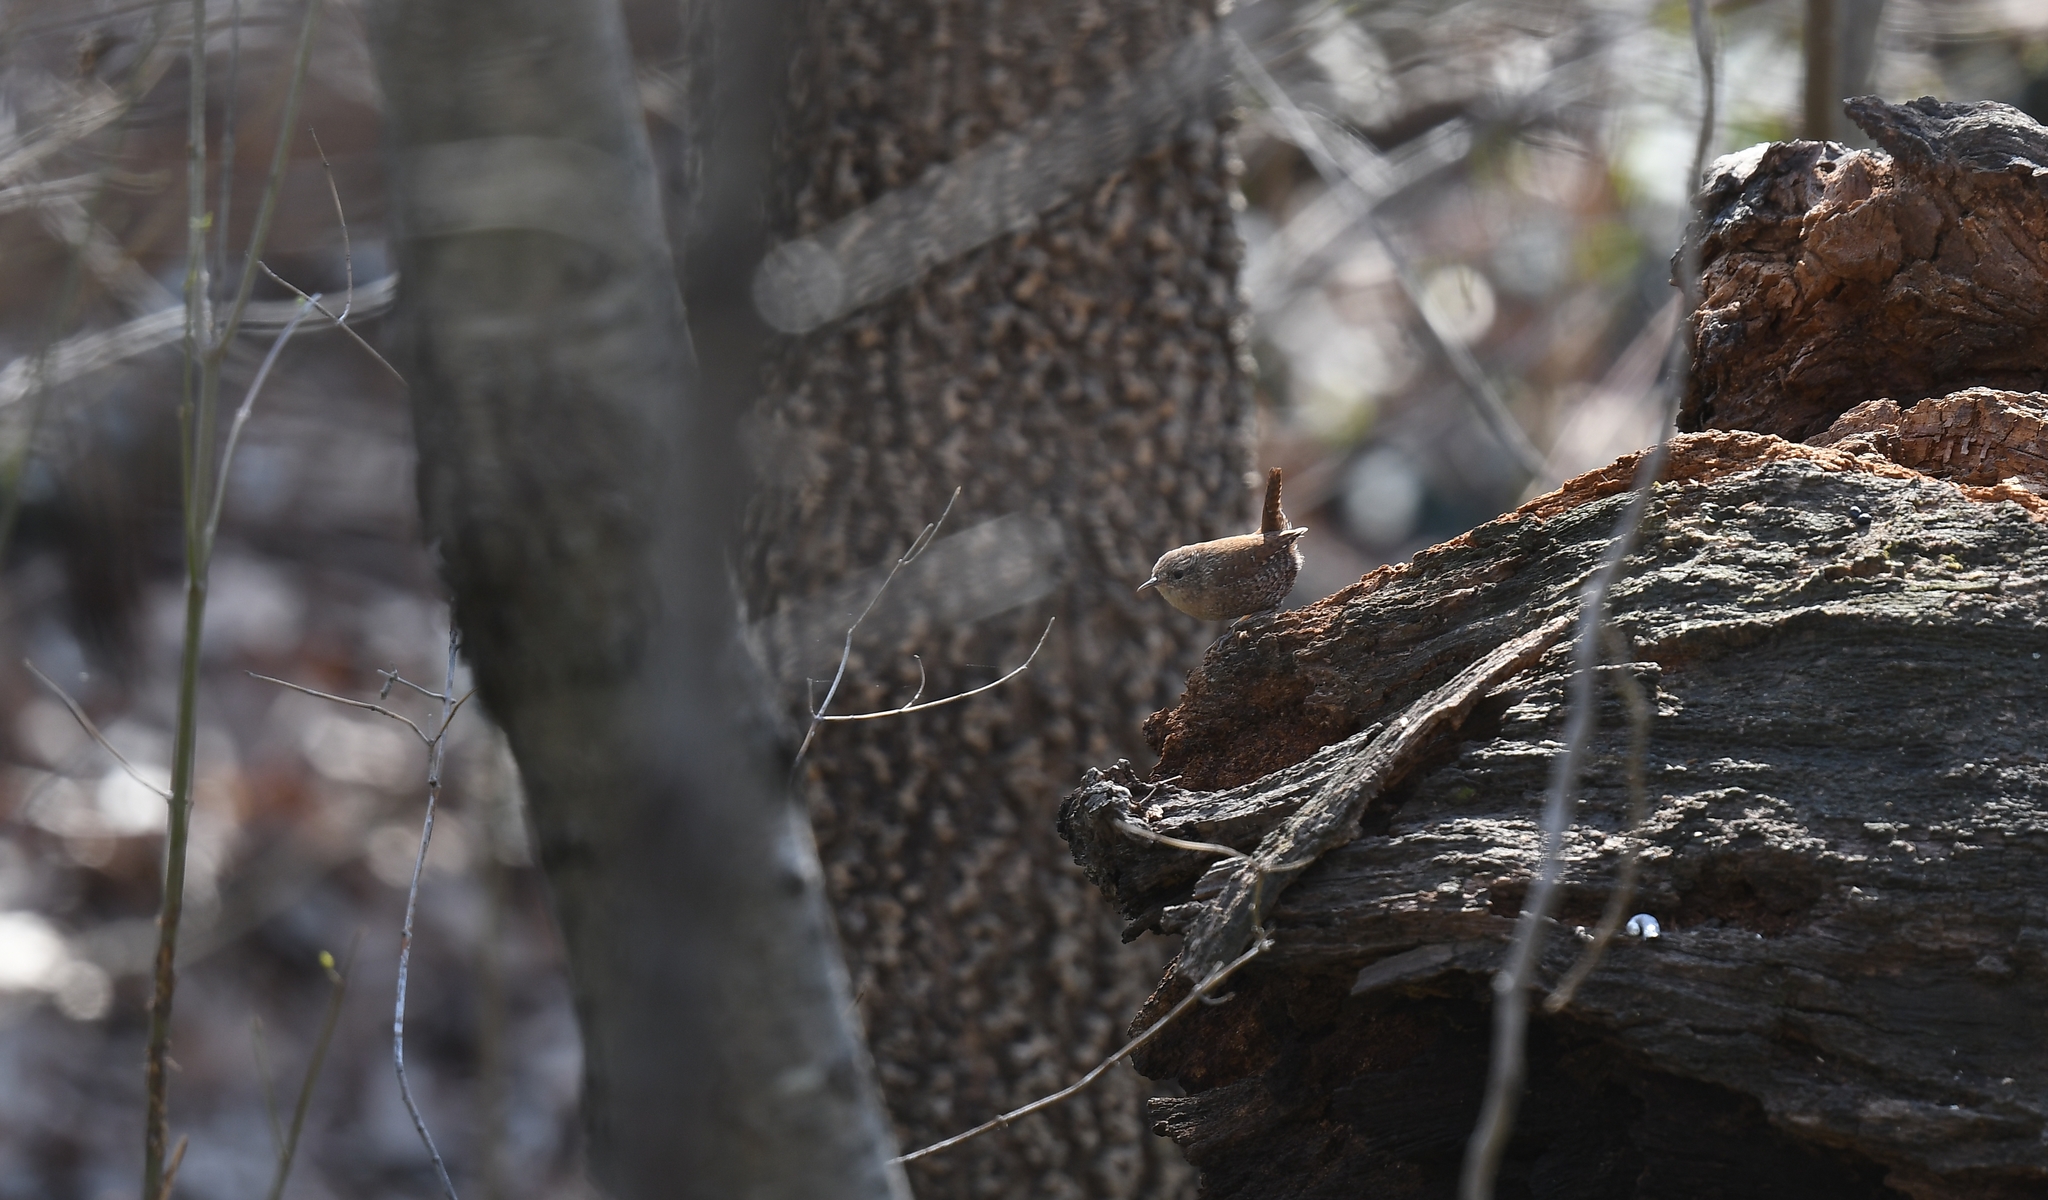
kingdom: Animalia
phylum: Chordata
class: Aves
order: Passeriformes
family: Troglodytidae
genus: Troglodytes
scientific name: Troglodytes hiemalis
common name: Winter wren
